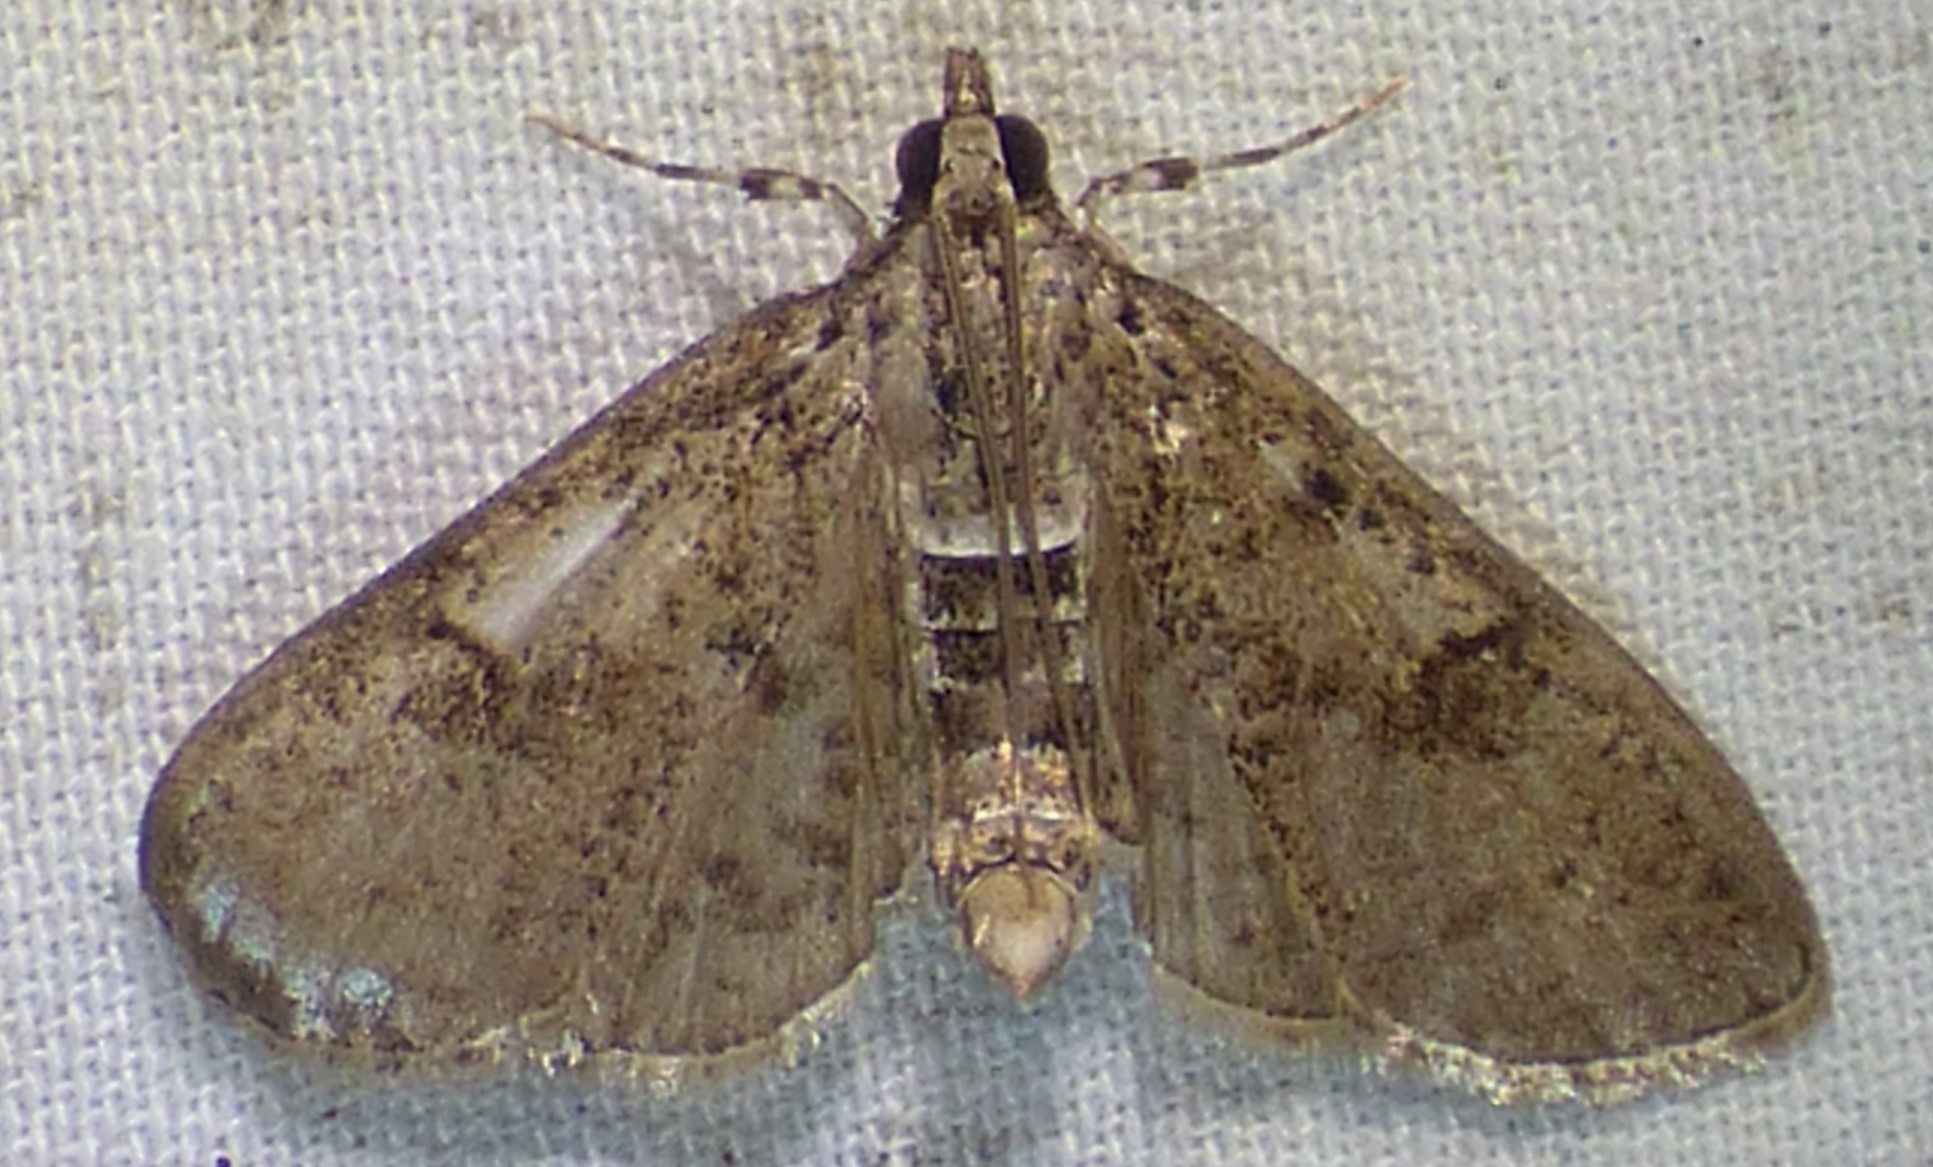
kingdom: Animalia
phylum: Arthropoda
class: Insecta
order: Lepidoptera
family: Crambidae
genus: Palpita
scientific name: Palpita magniferalis
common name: Splendid palpita moth
